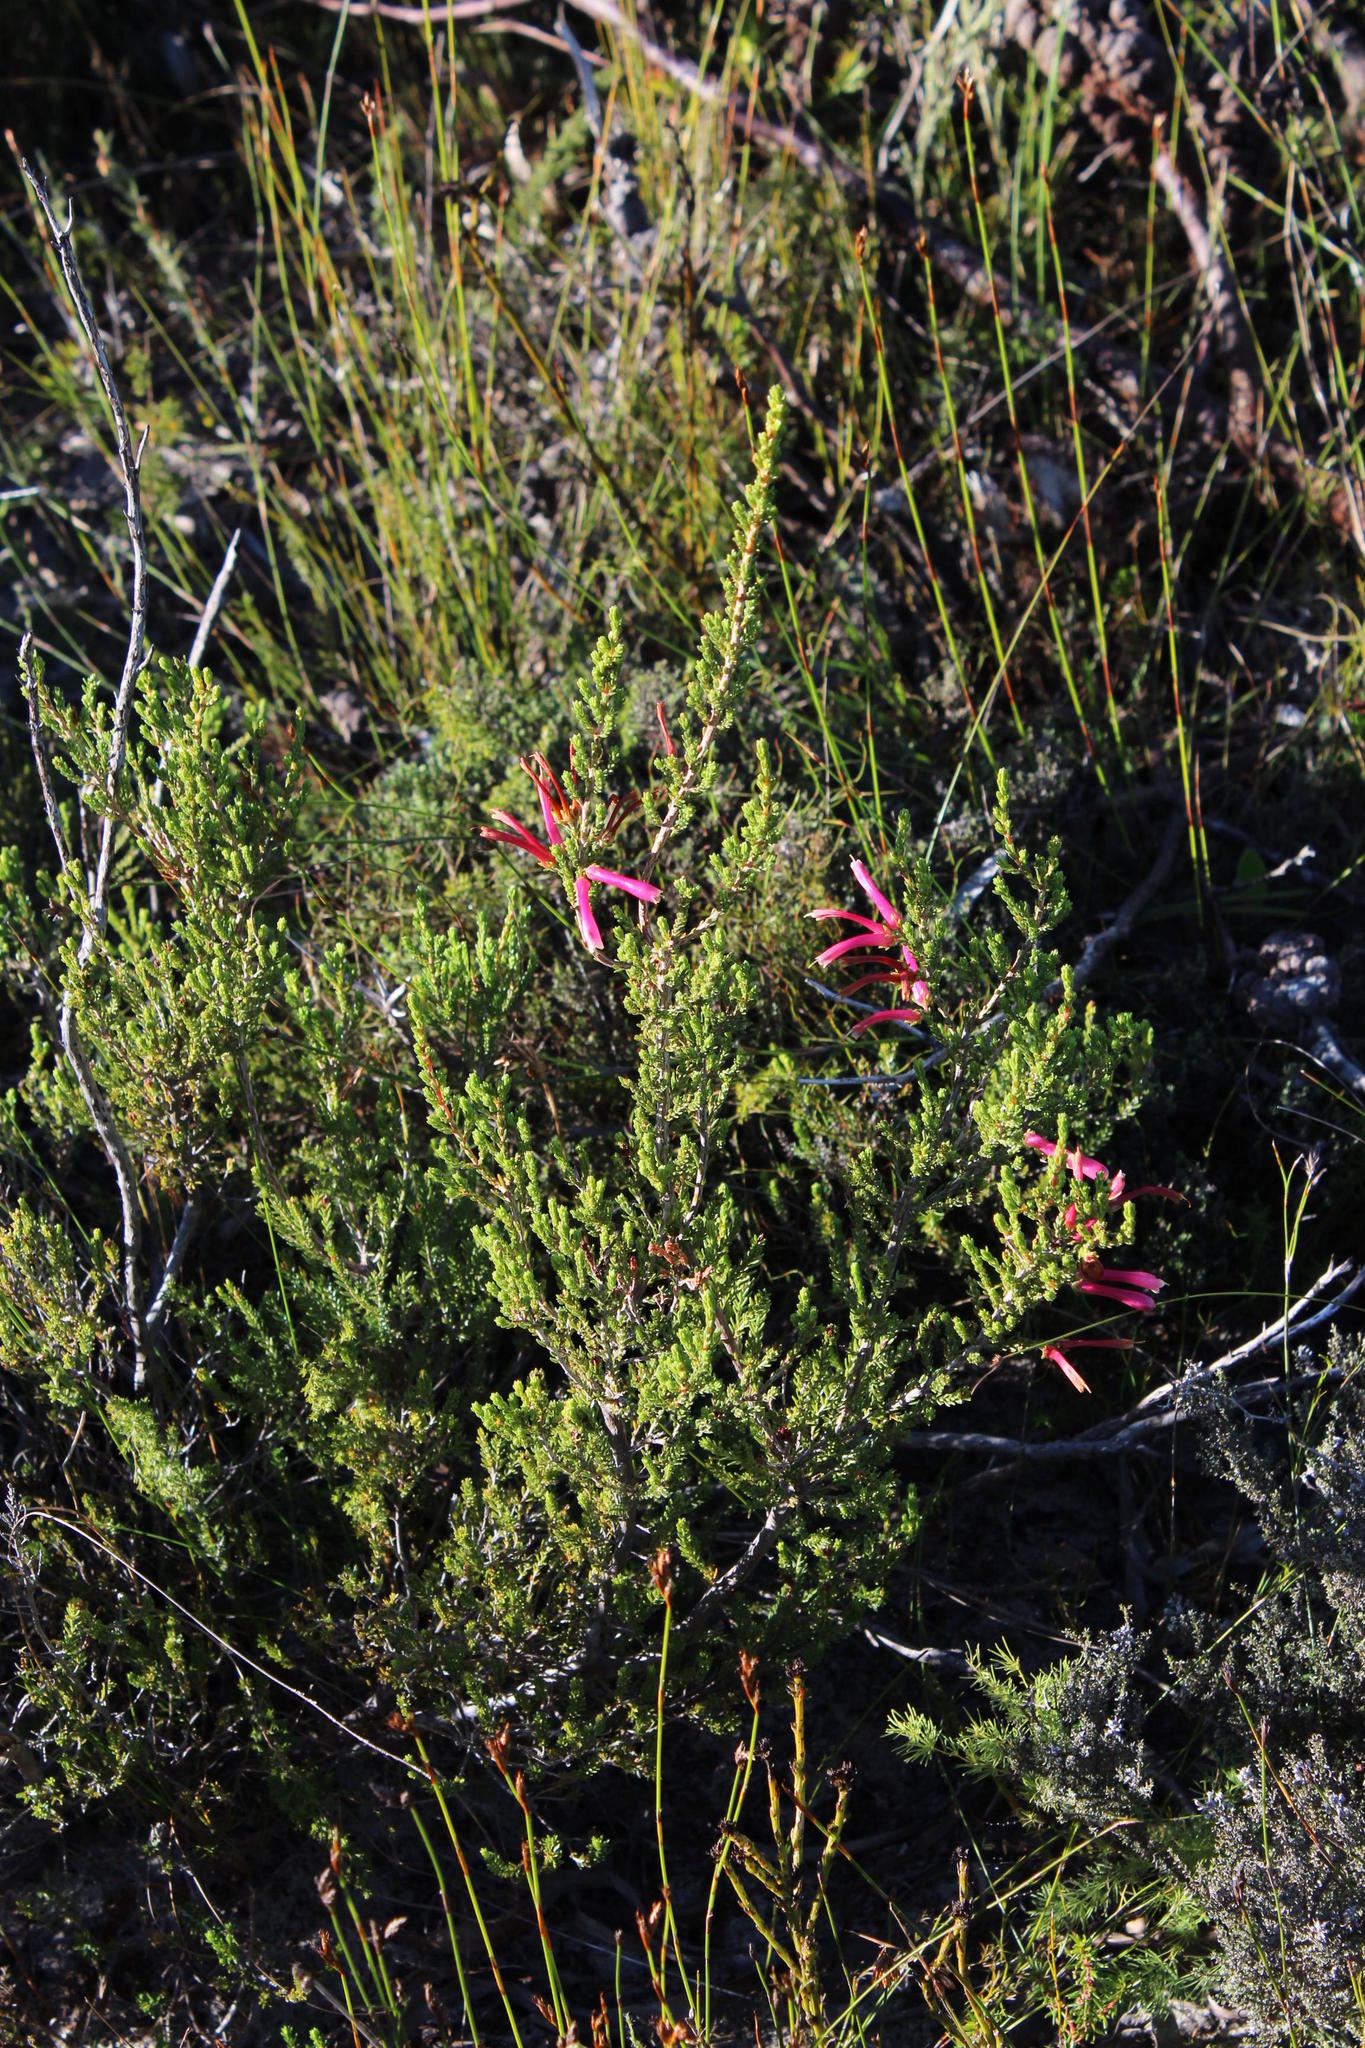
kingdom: Plantae
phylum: Tracheophyta
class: Magnoliopsida
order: Ericales
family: Ericaceae
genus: Erica
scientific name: Erica discolor
